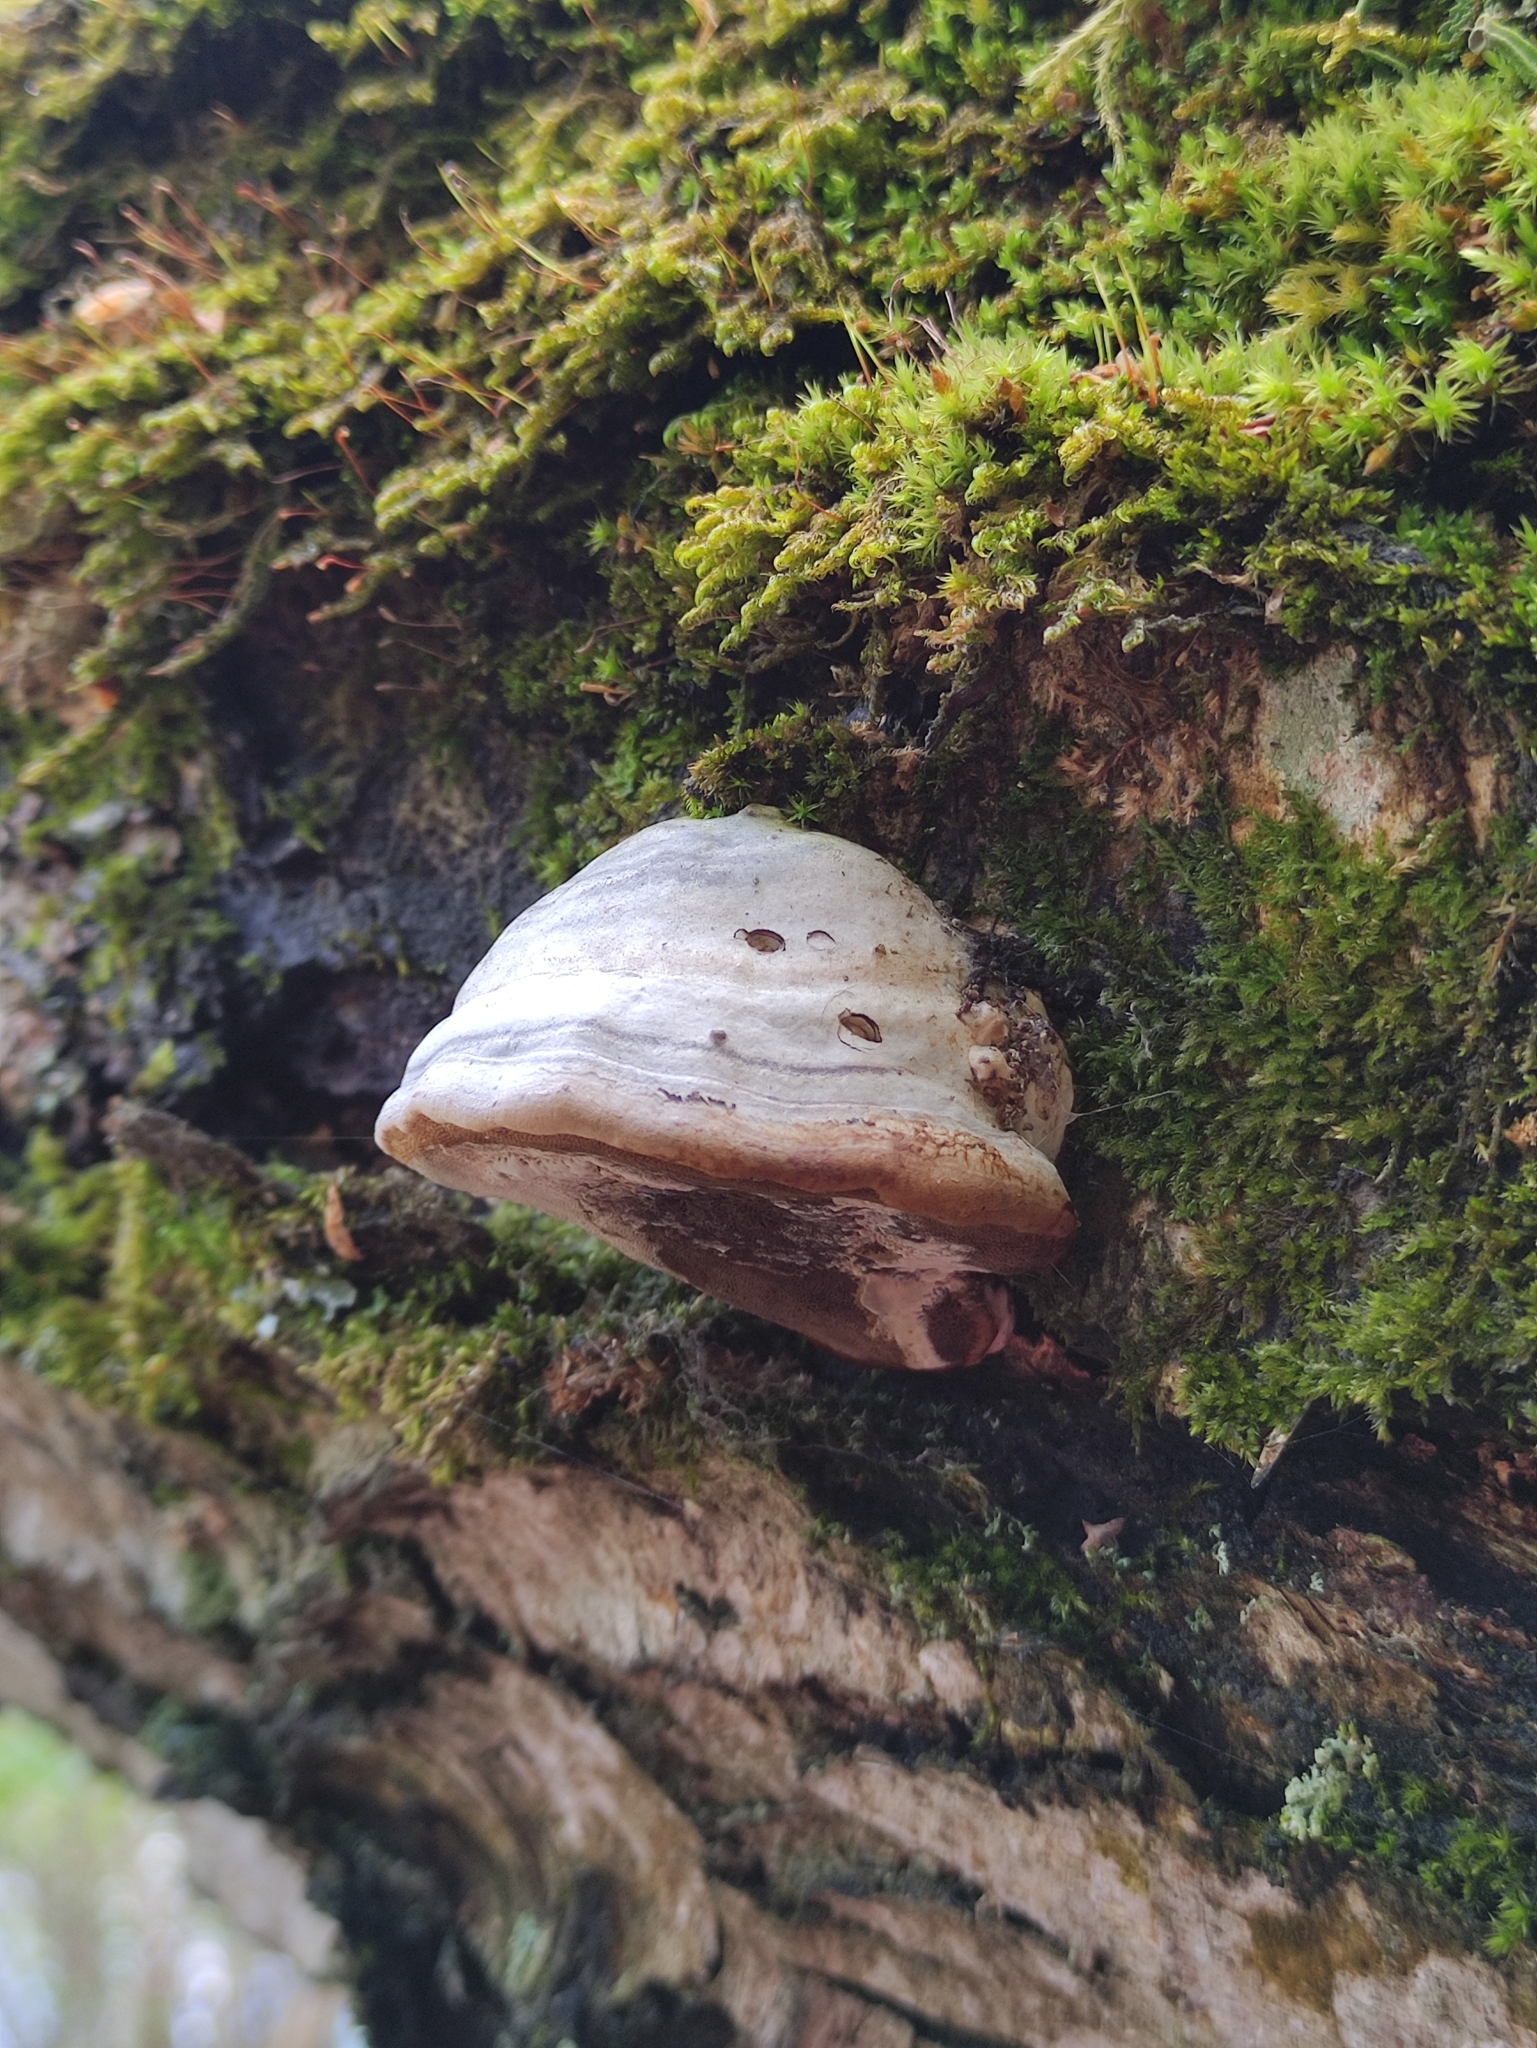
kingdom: Fungi
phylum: Basidiomycota
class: Agaricomycetes
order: Polyporales
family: Polyporaceae
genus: Fomes
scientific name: Fomes fomentarius
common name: Hoof fungus
